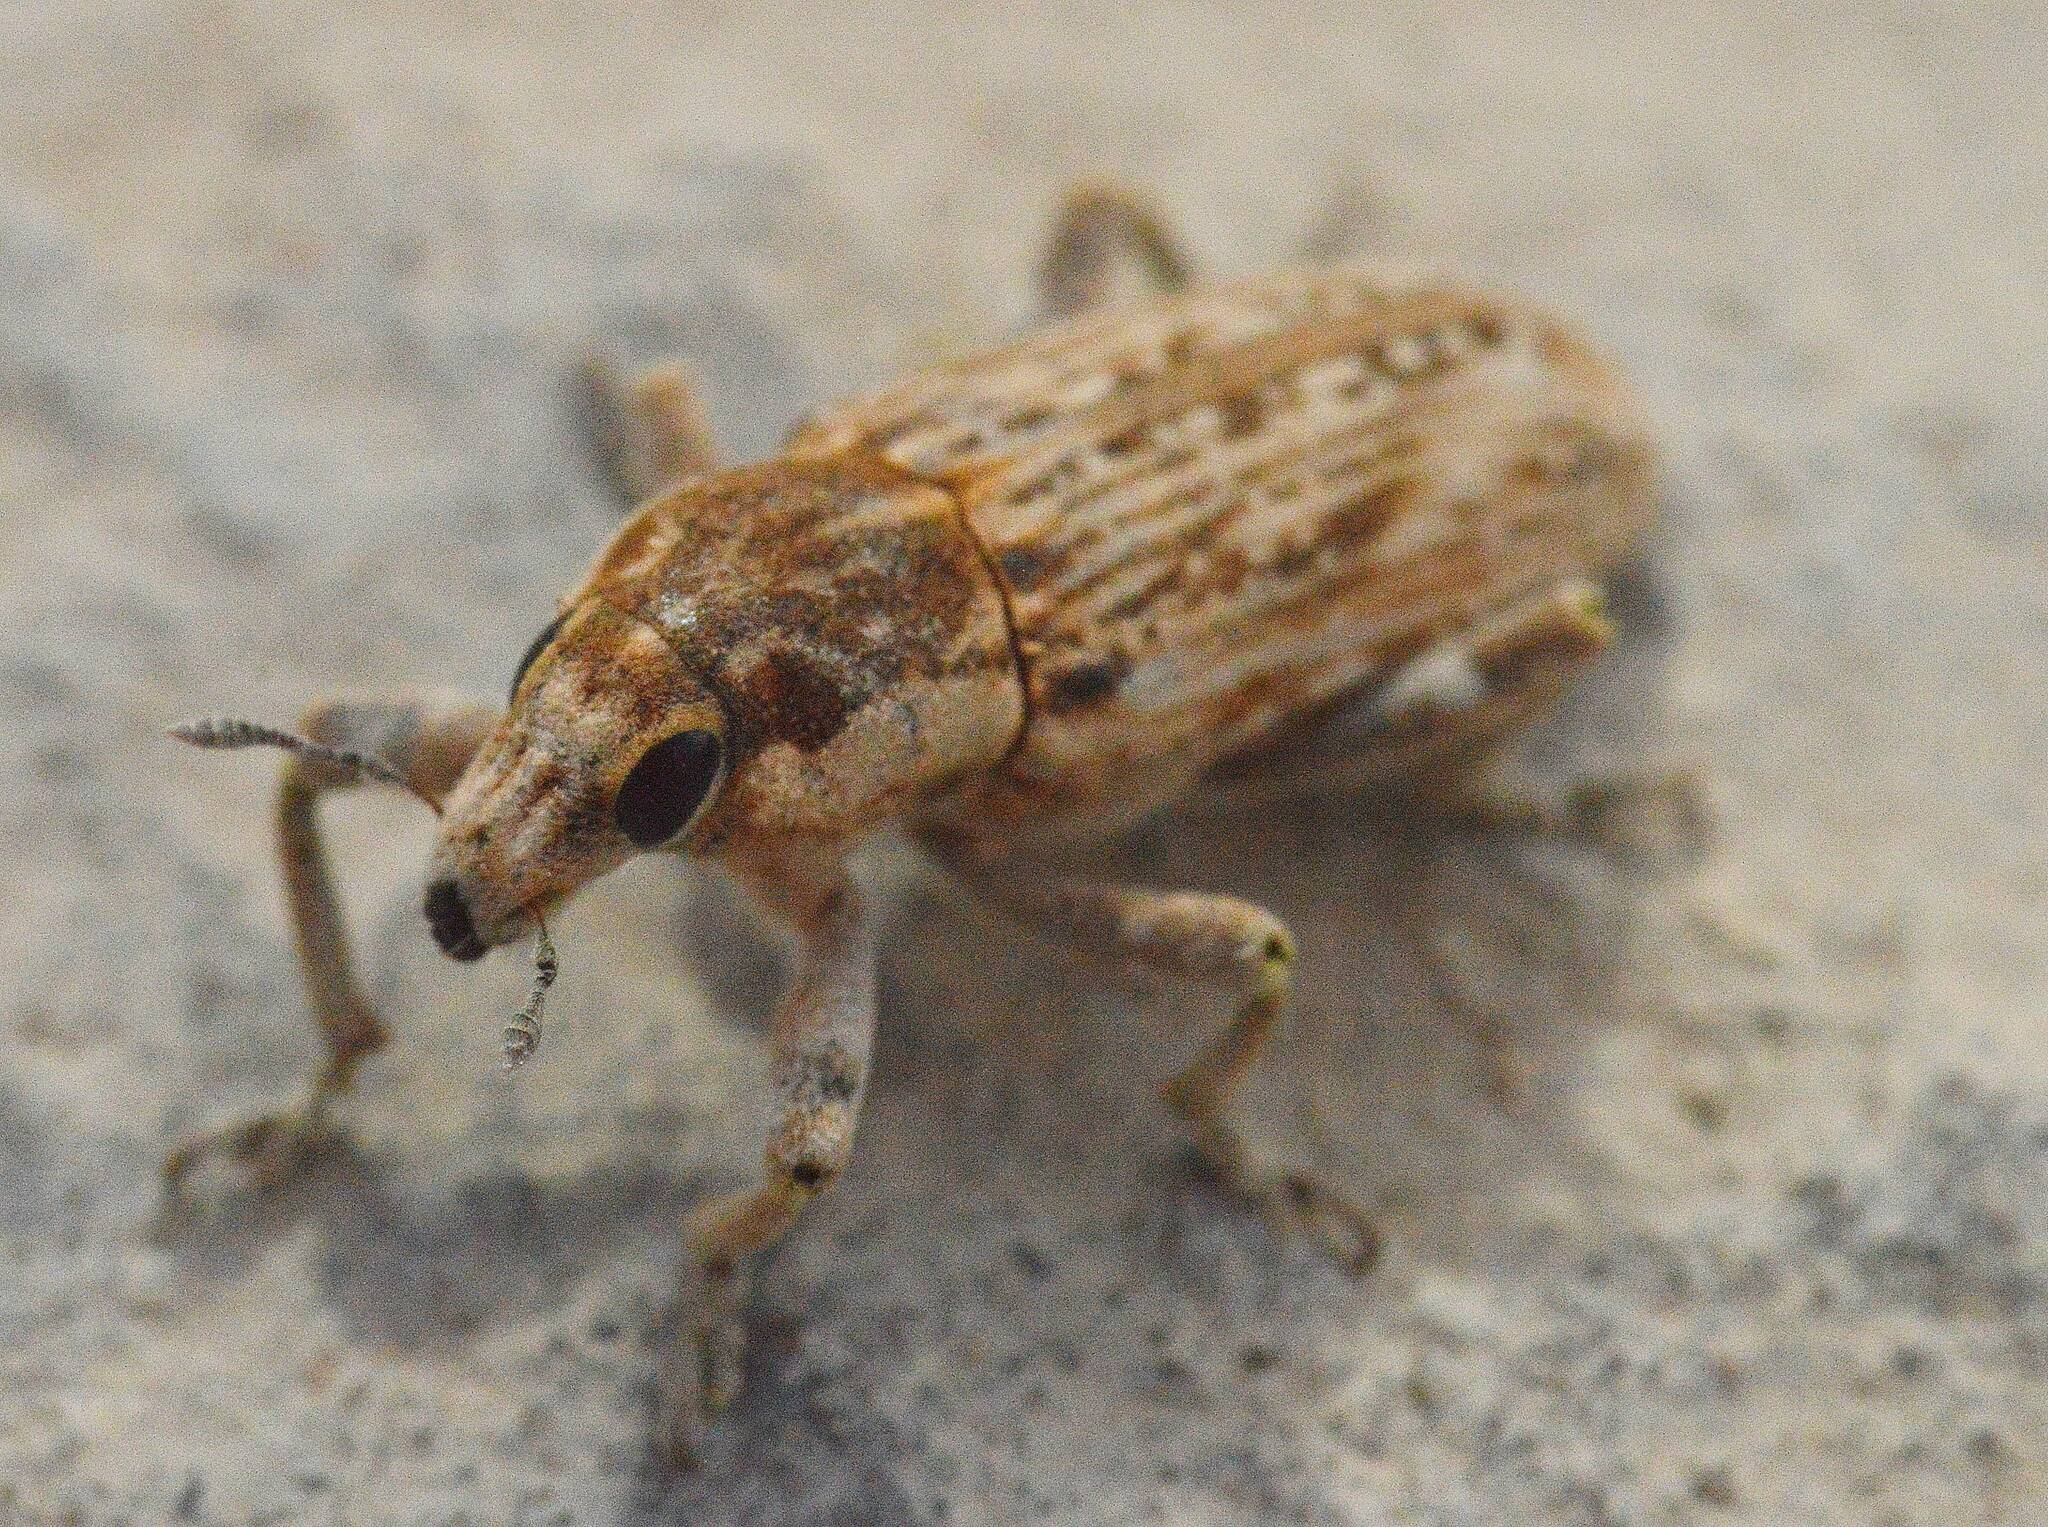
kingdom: Animalia
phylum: Arthropoda
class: Insecta
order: Coleoptera
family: Curculionidae
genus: Temnorhinus
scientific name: Temnorhinus mixtus
